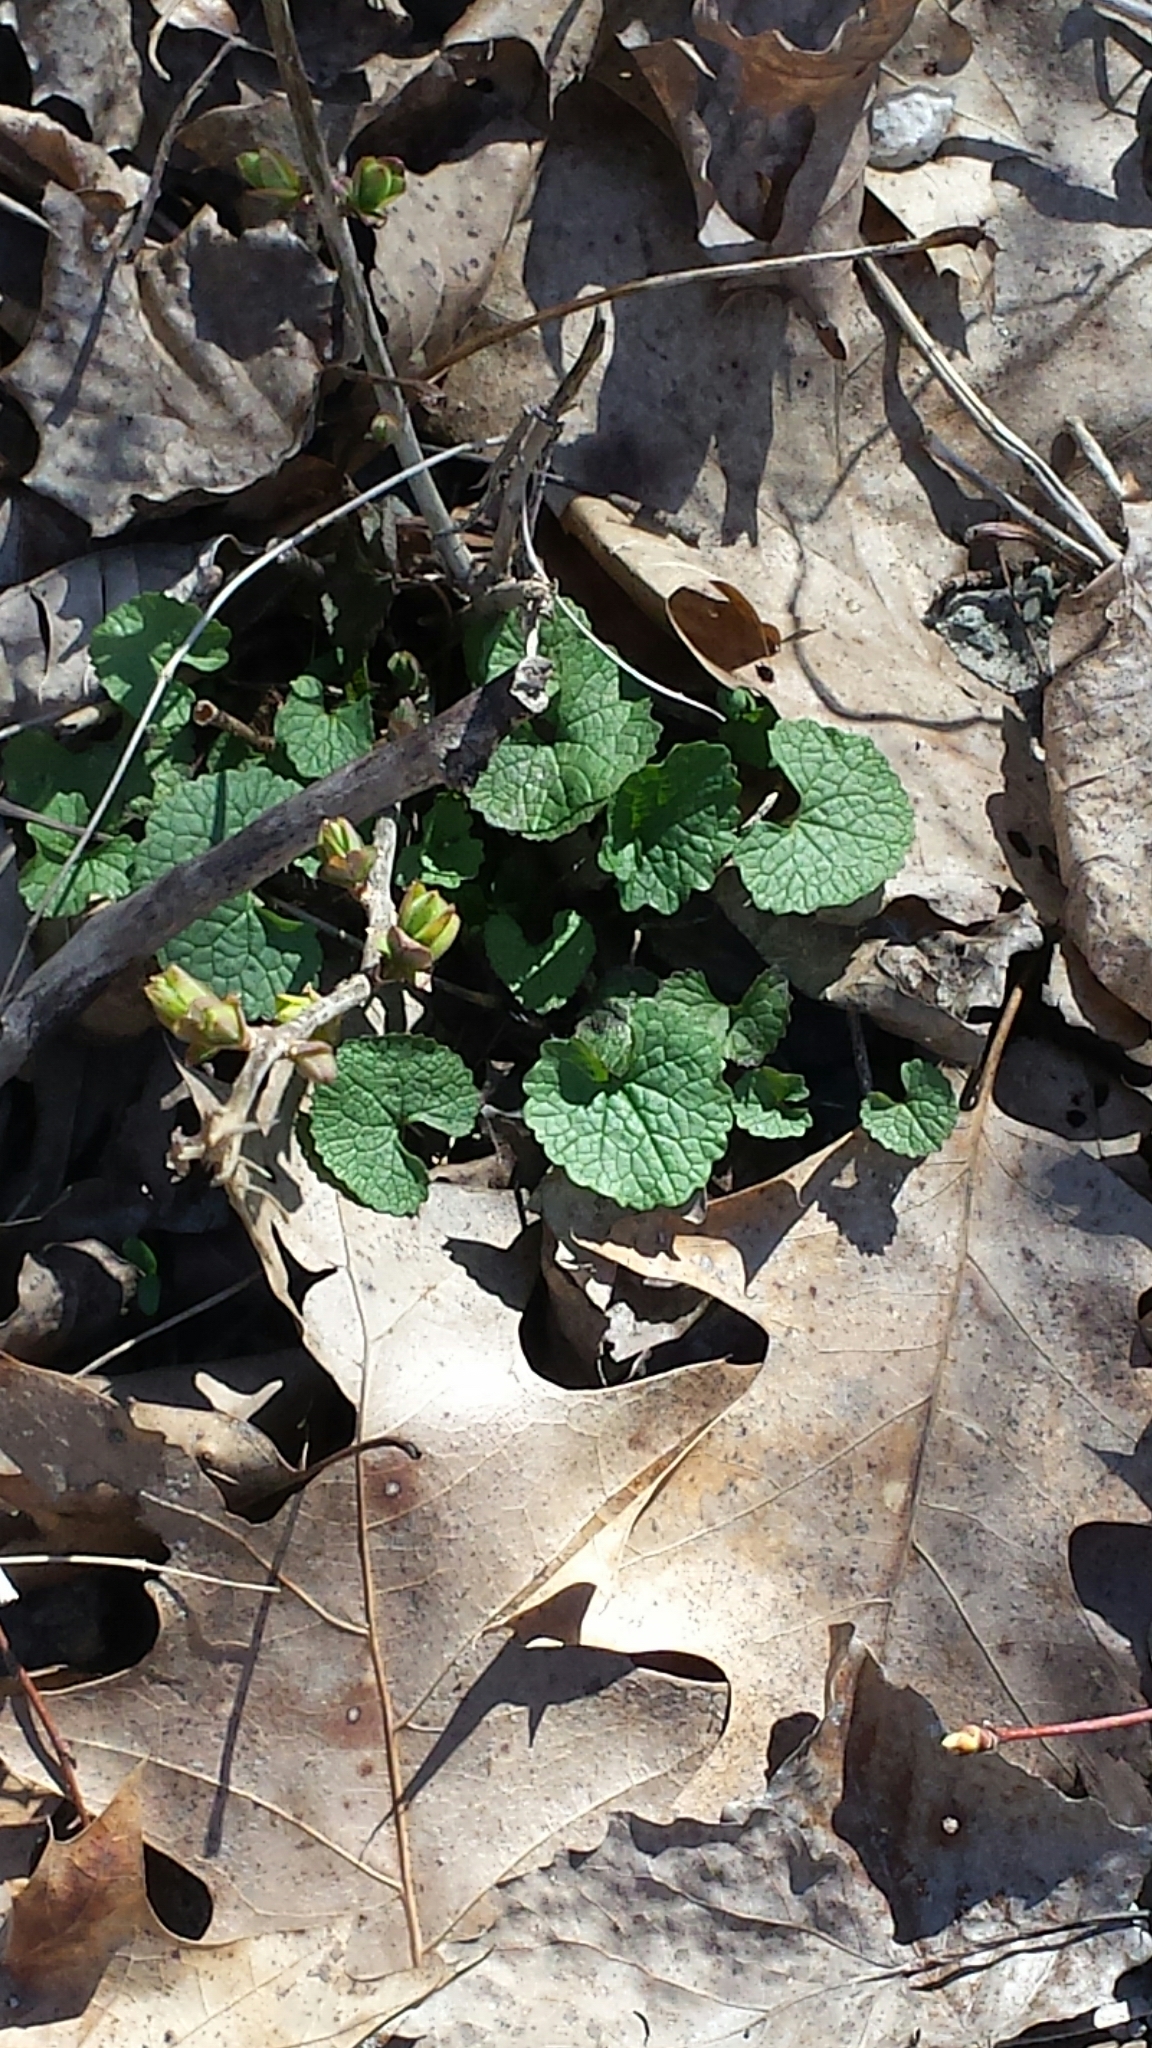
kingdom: Plantae
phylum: Tracheophyta
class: Magnoliopsida
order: Brassicales
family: Brassicaceae
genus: Alliaria
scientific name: Alliaria petiolata
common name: Garlic mustard
